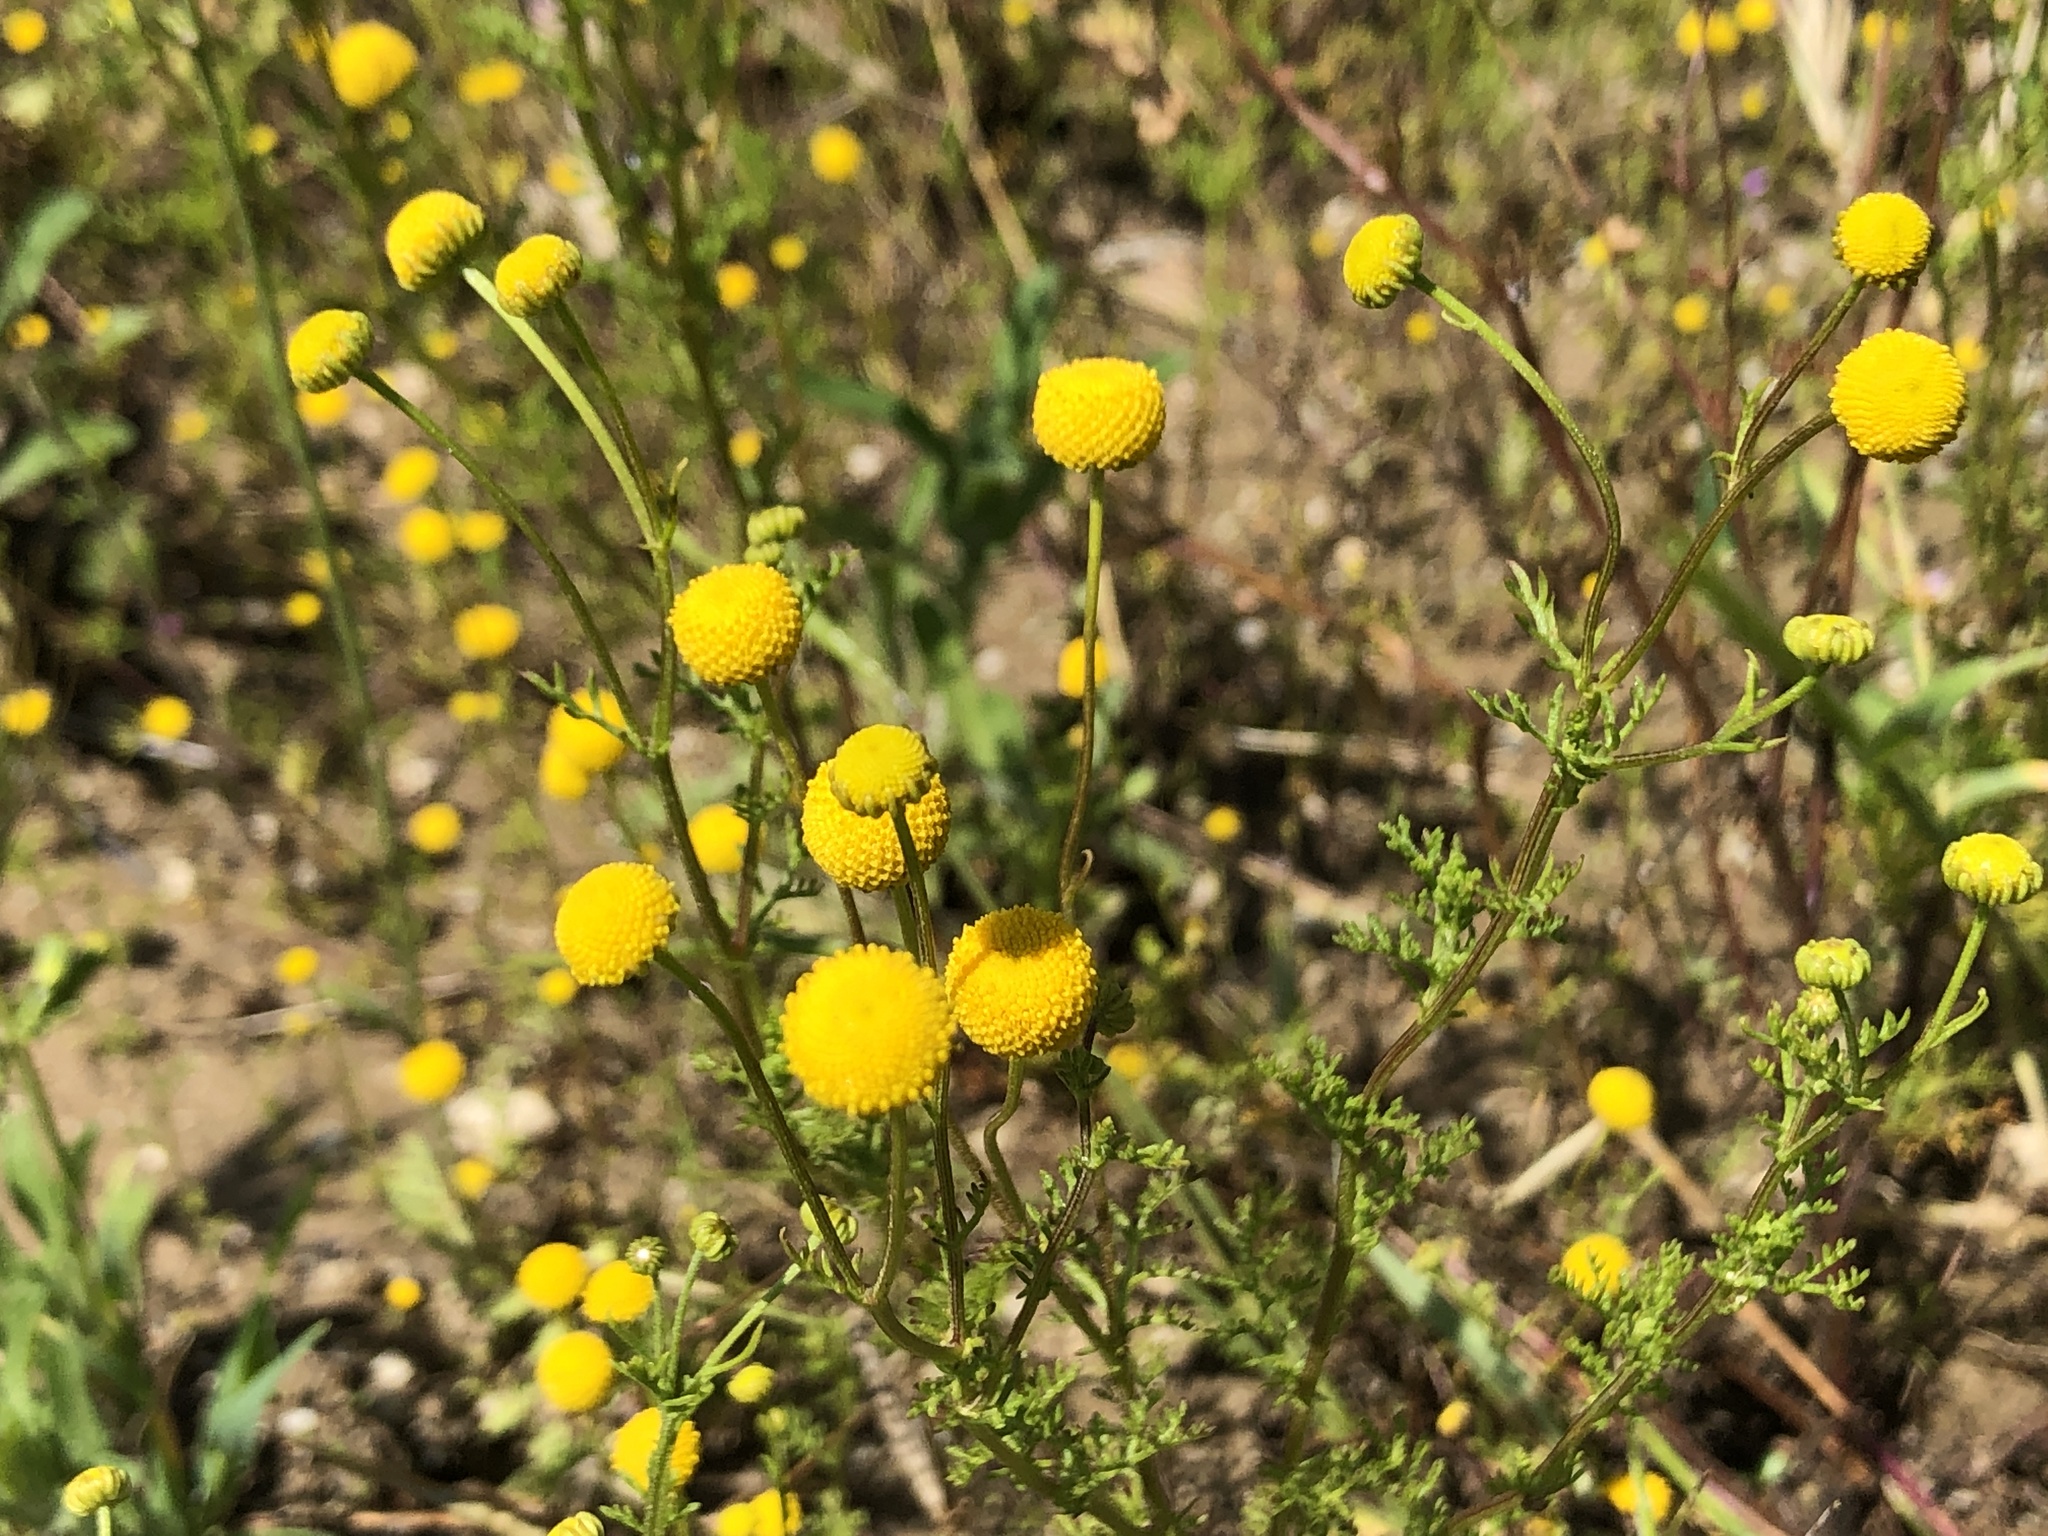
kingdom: Plantae
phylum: Tracheophyta
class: Magnoliopsida
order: Asterales
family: Asteraceae
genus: Oncosiphon
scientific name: Oncosiphon pilulifer
